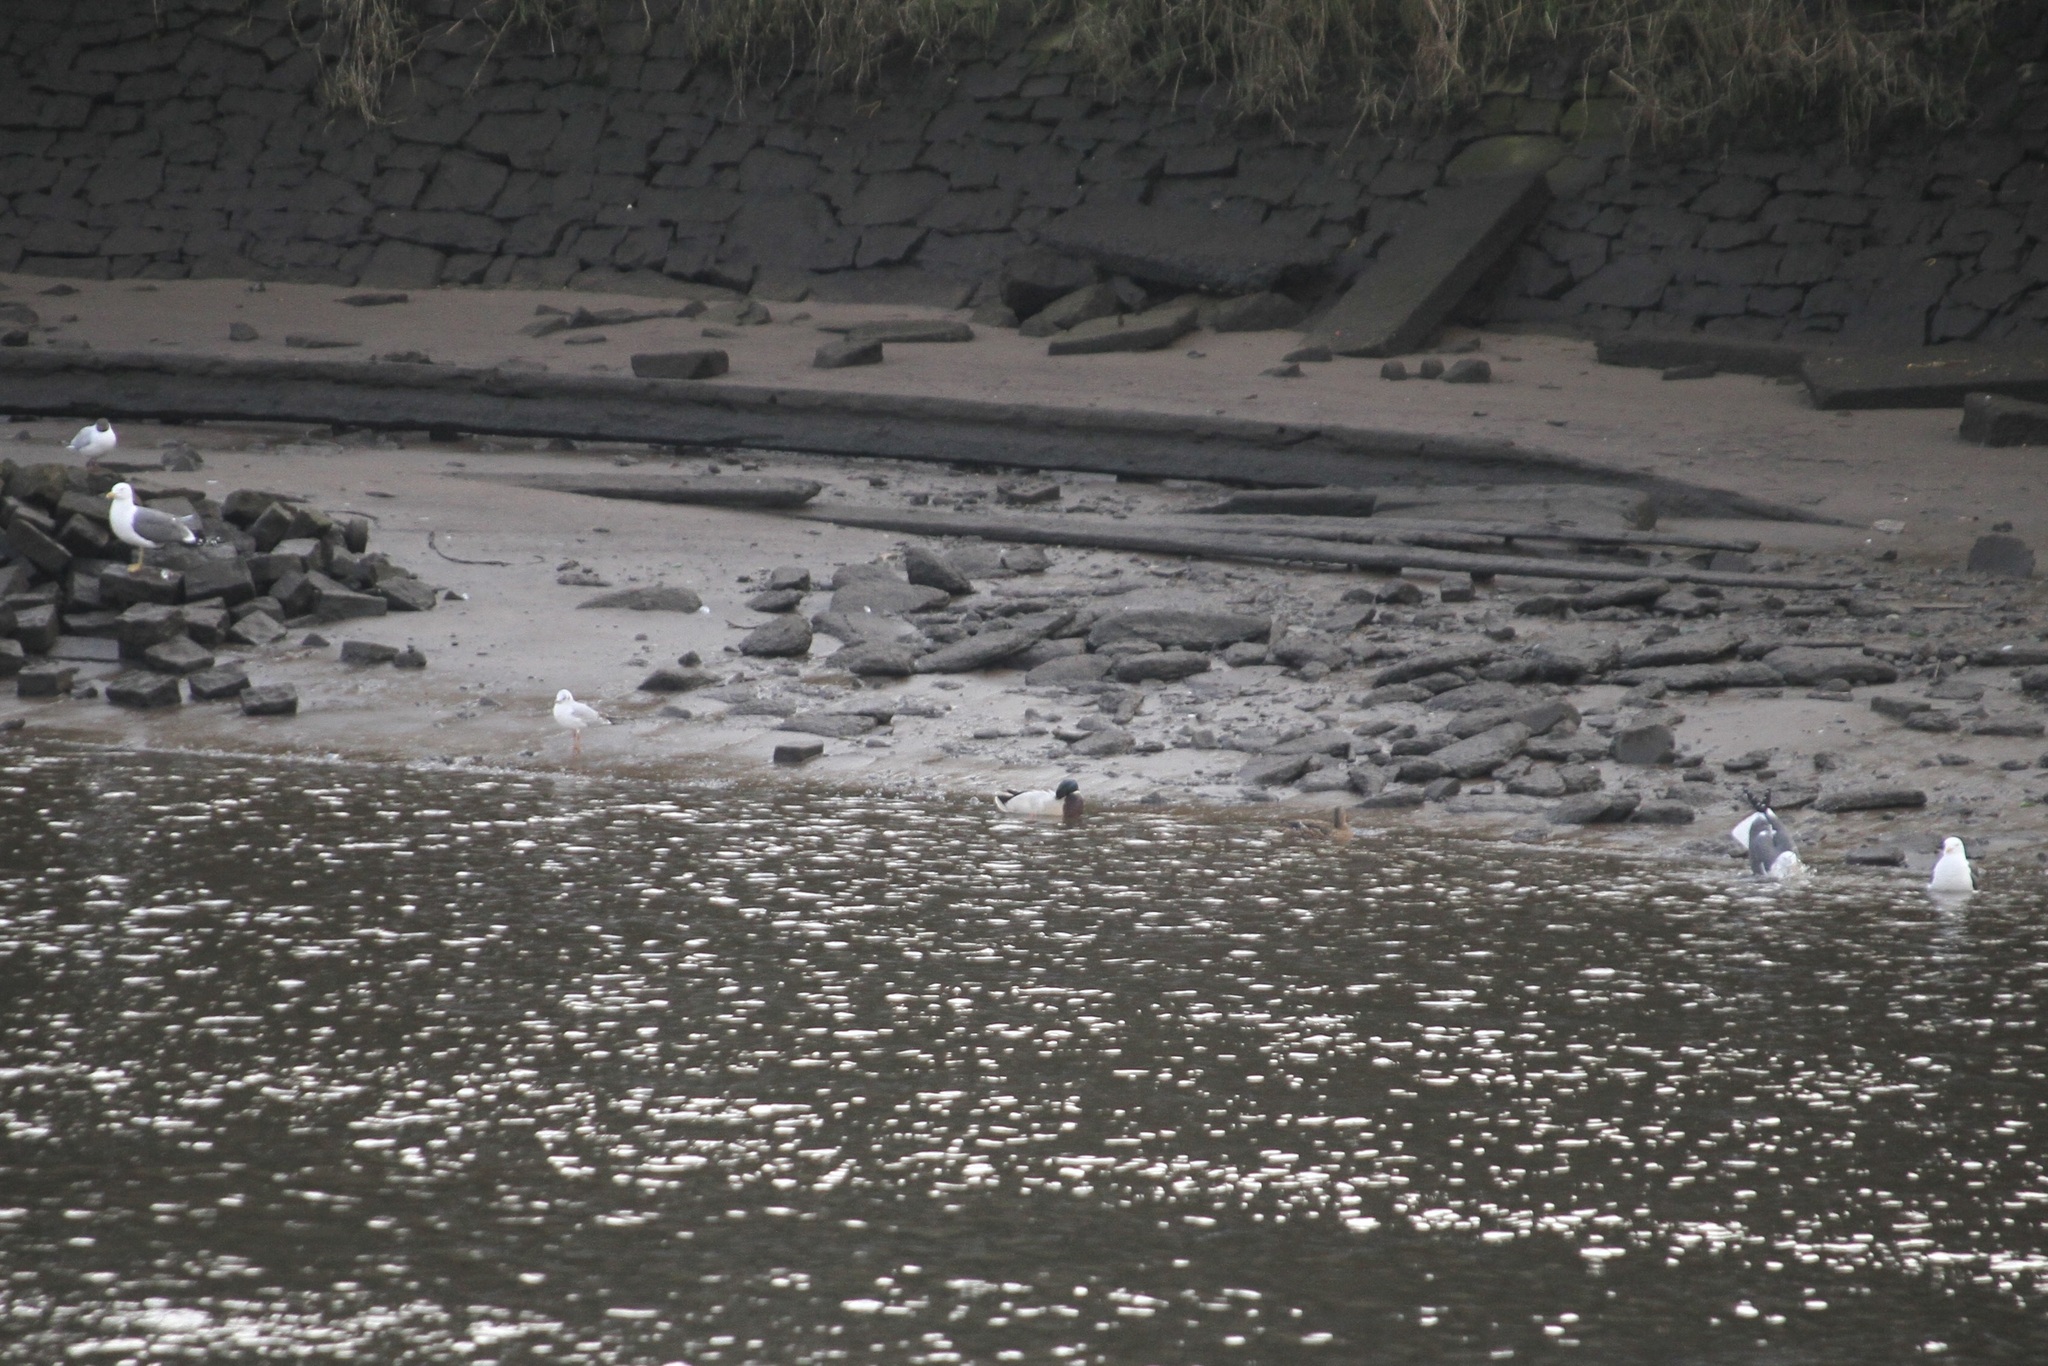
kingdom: Animalia
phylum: Chordata
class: Aves
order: Anseriformes
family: Anatidae
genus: Anas
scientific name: Anas platyrhynchos
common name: Mallard
